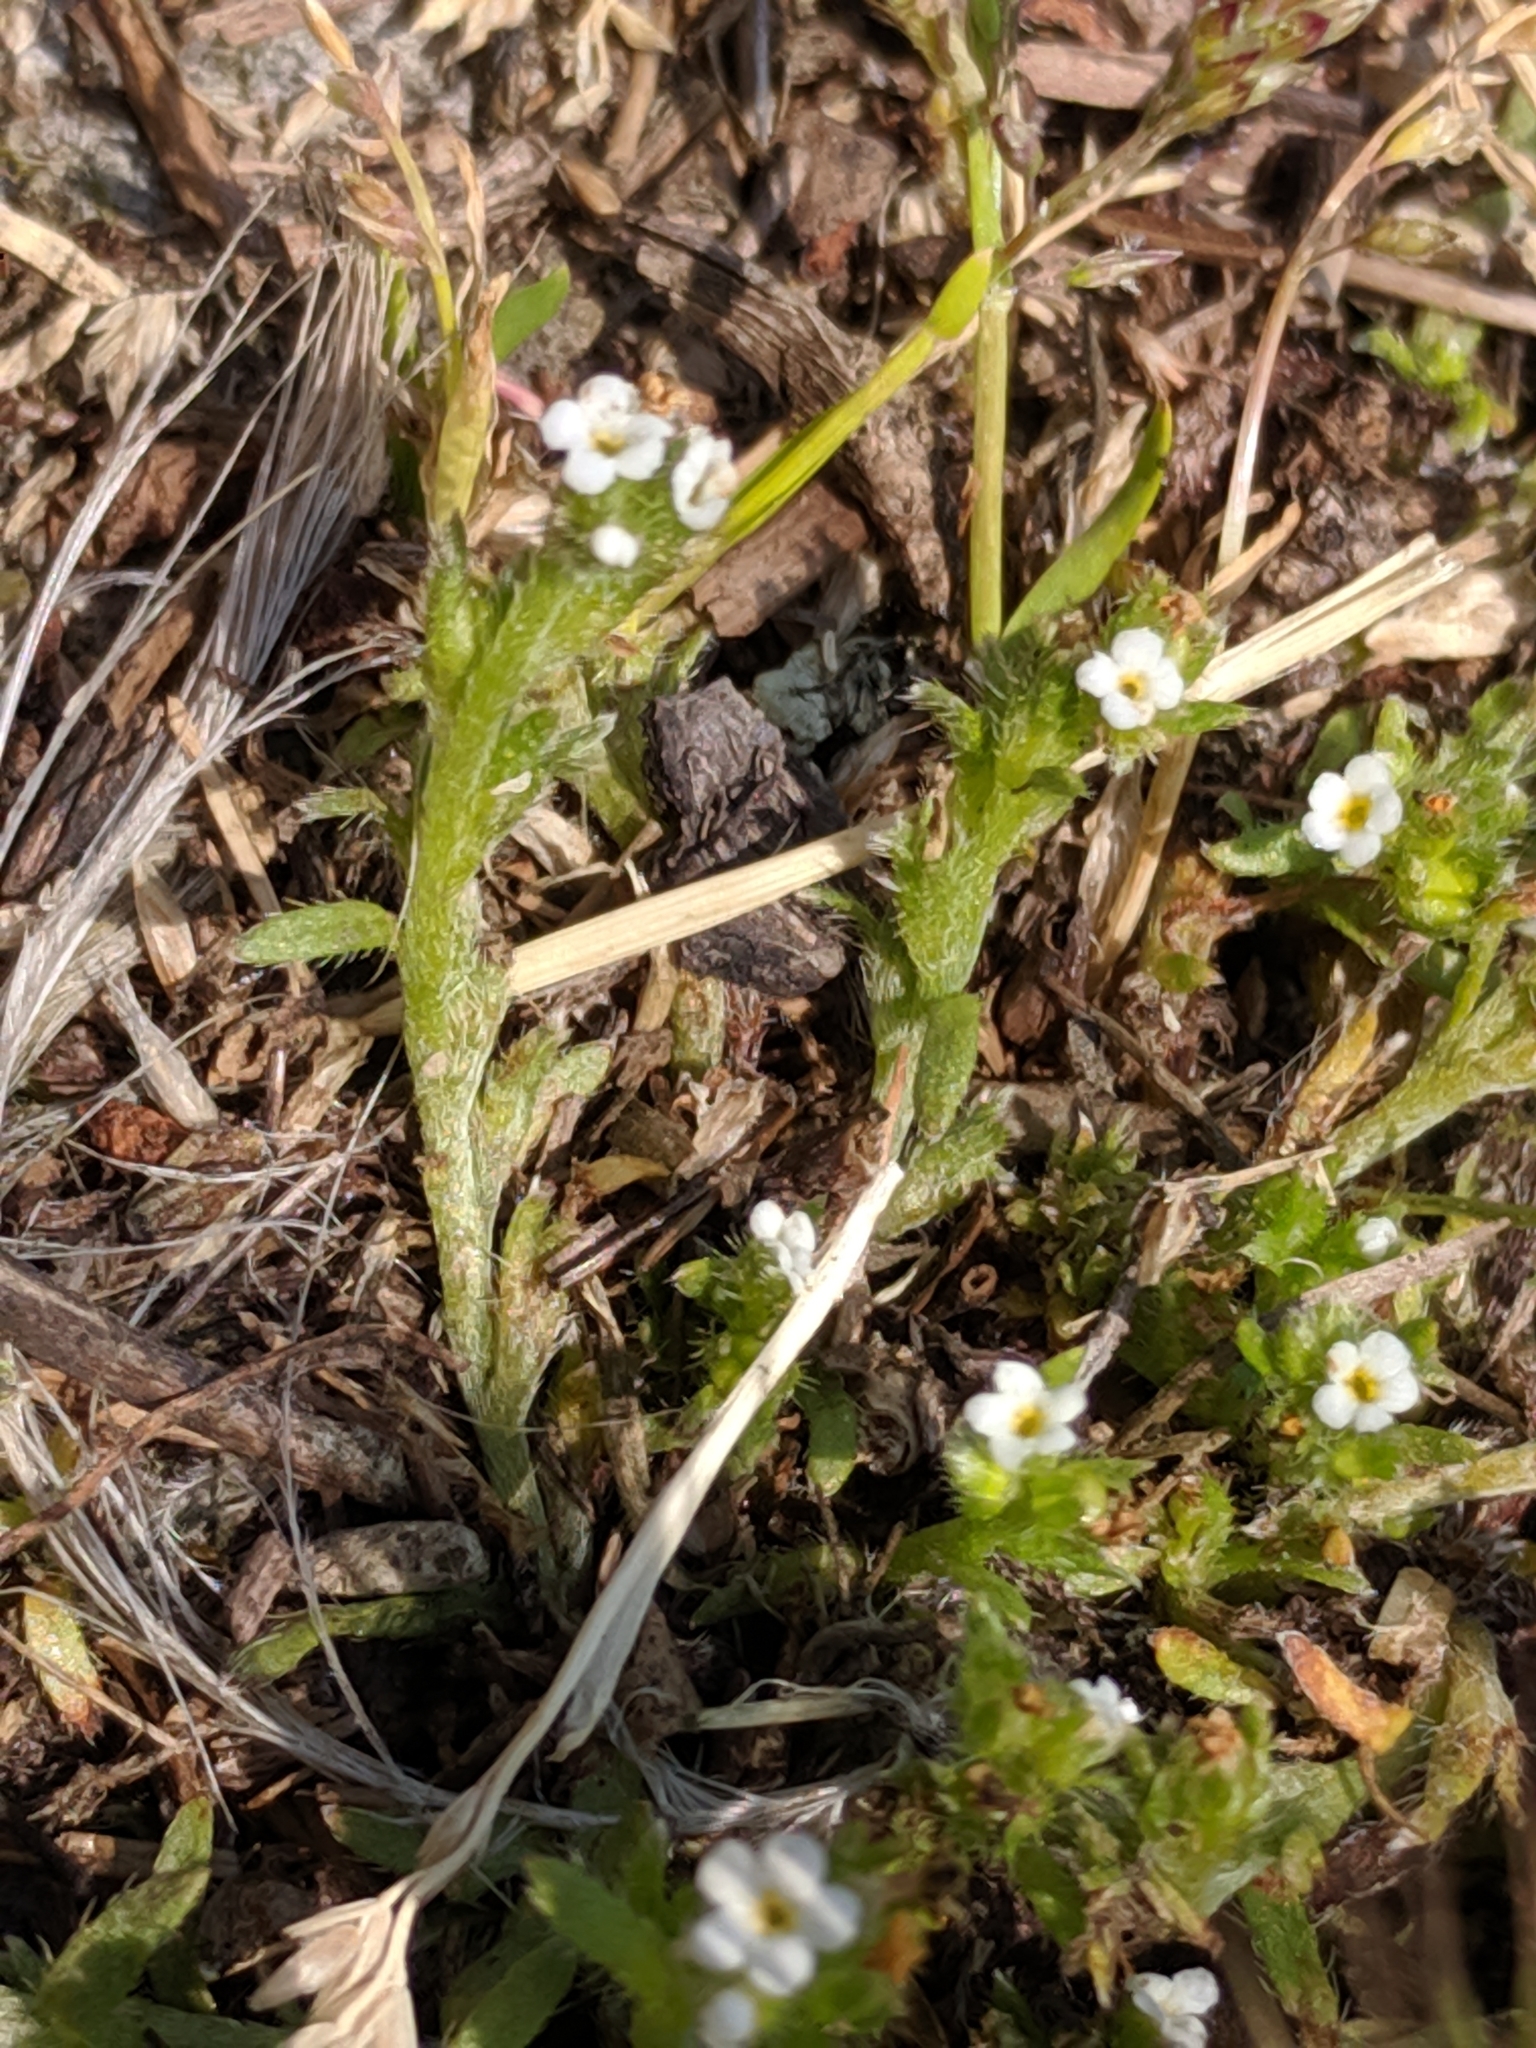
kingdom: Plantae
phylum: Tracheophyta
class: Magnoliopsida
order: Boraginales
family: Boraginaceae
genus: Plagiobothrys
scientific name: Plagiobothrys scouleri
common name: White forget-me-not
